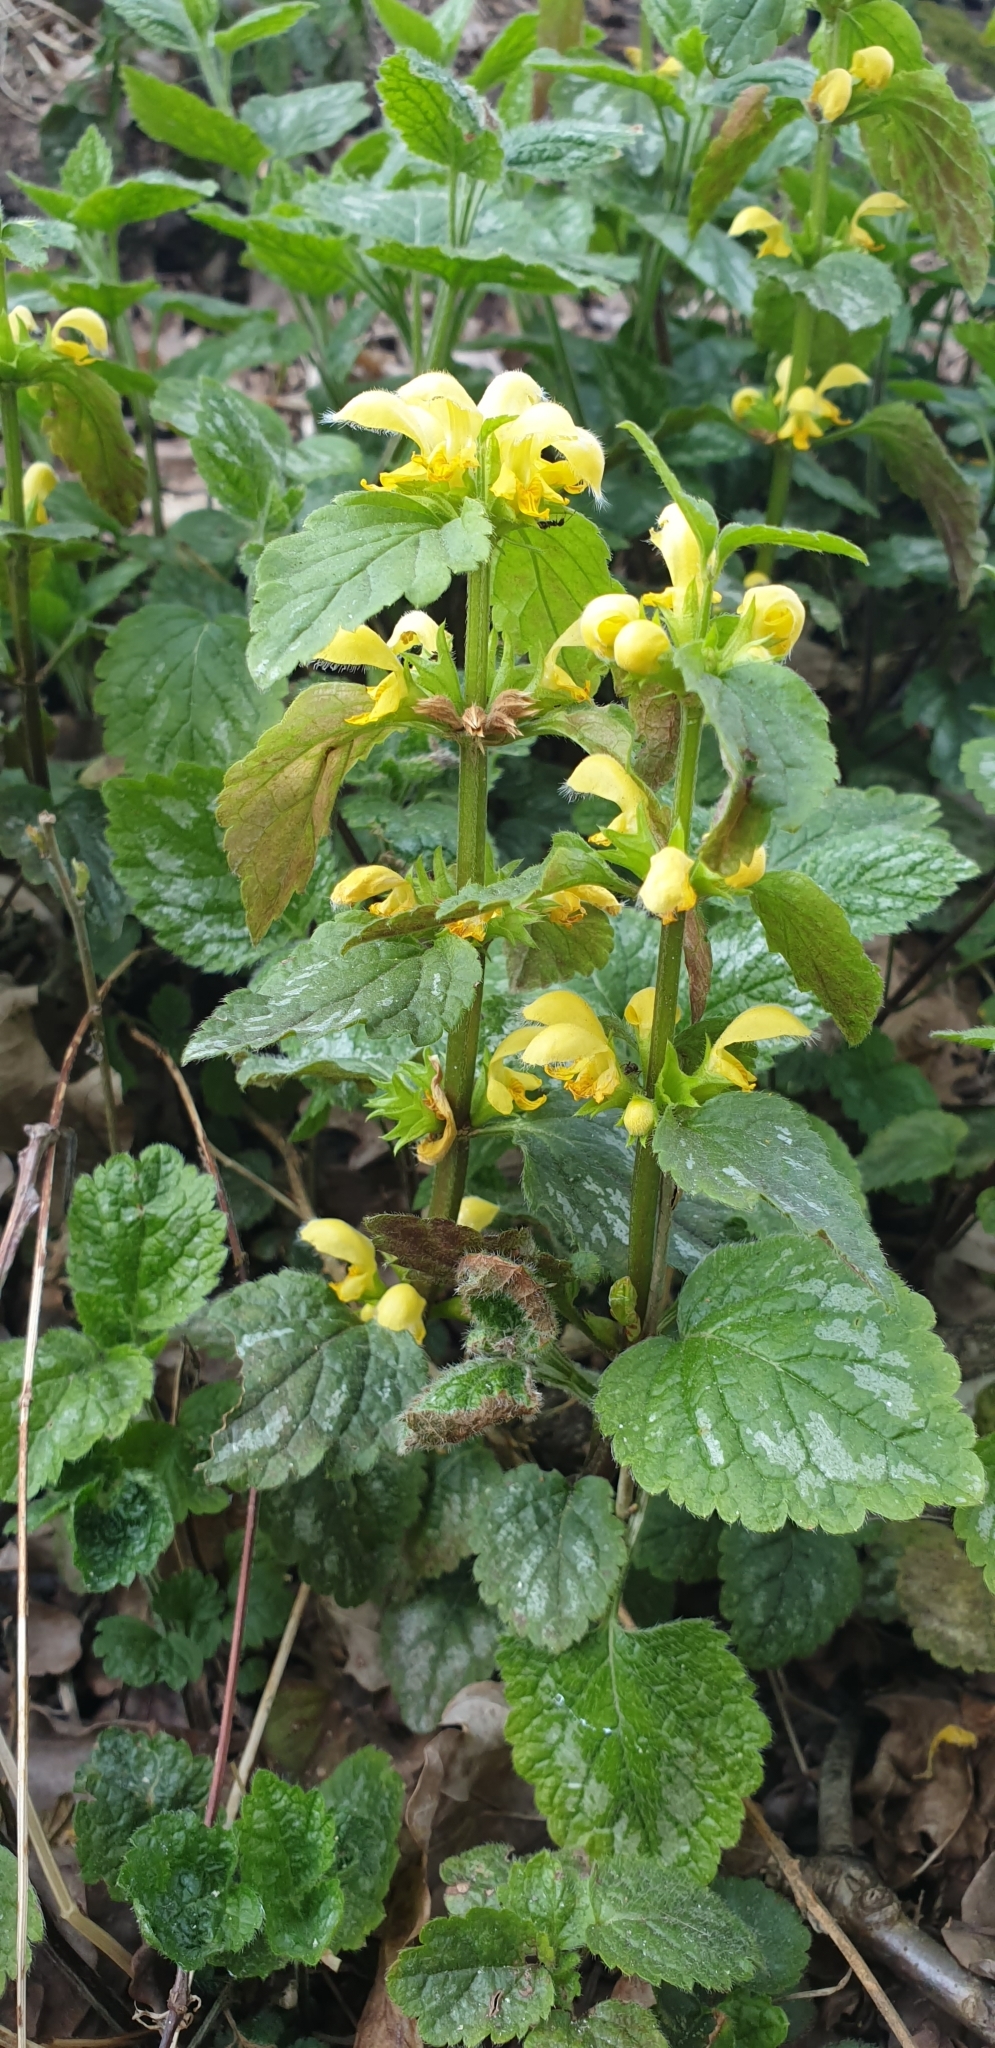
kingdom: Plantae
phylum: Tracheophyta
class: Magnoliopsida
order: Lamiales
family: Lamiaceae
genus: Lamium
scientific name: Lamium galeobdolon
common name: Yellow archangel
